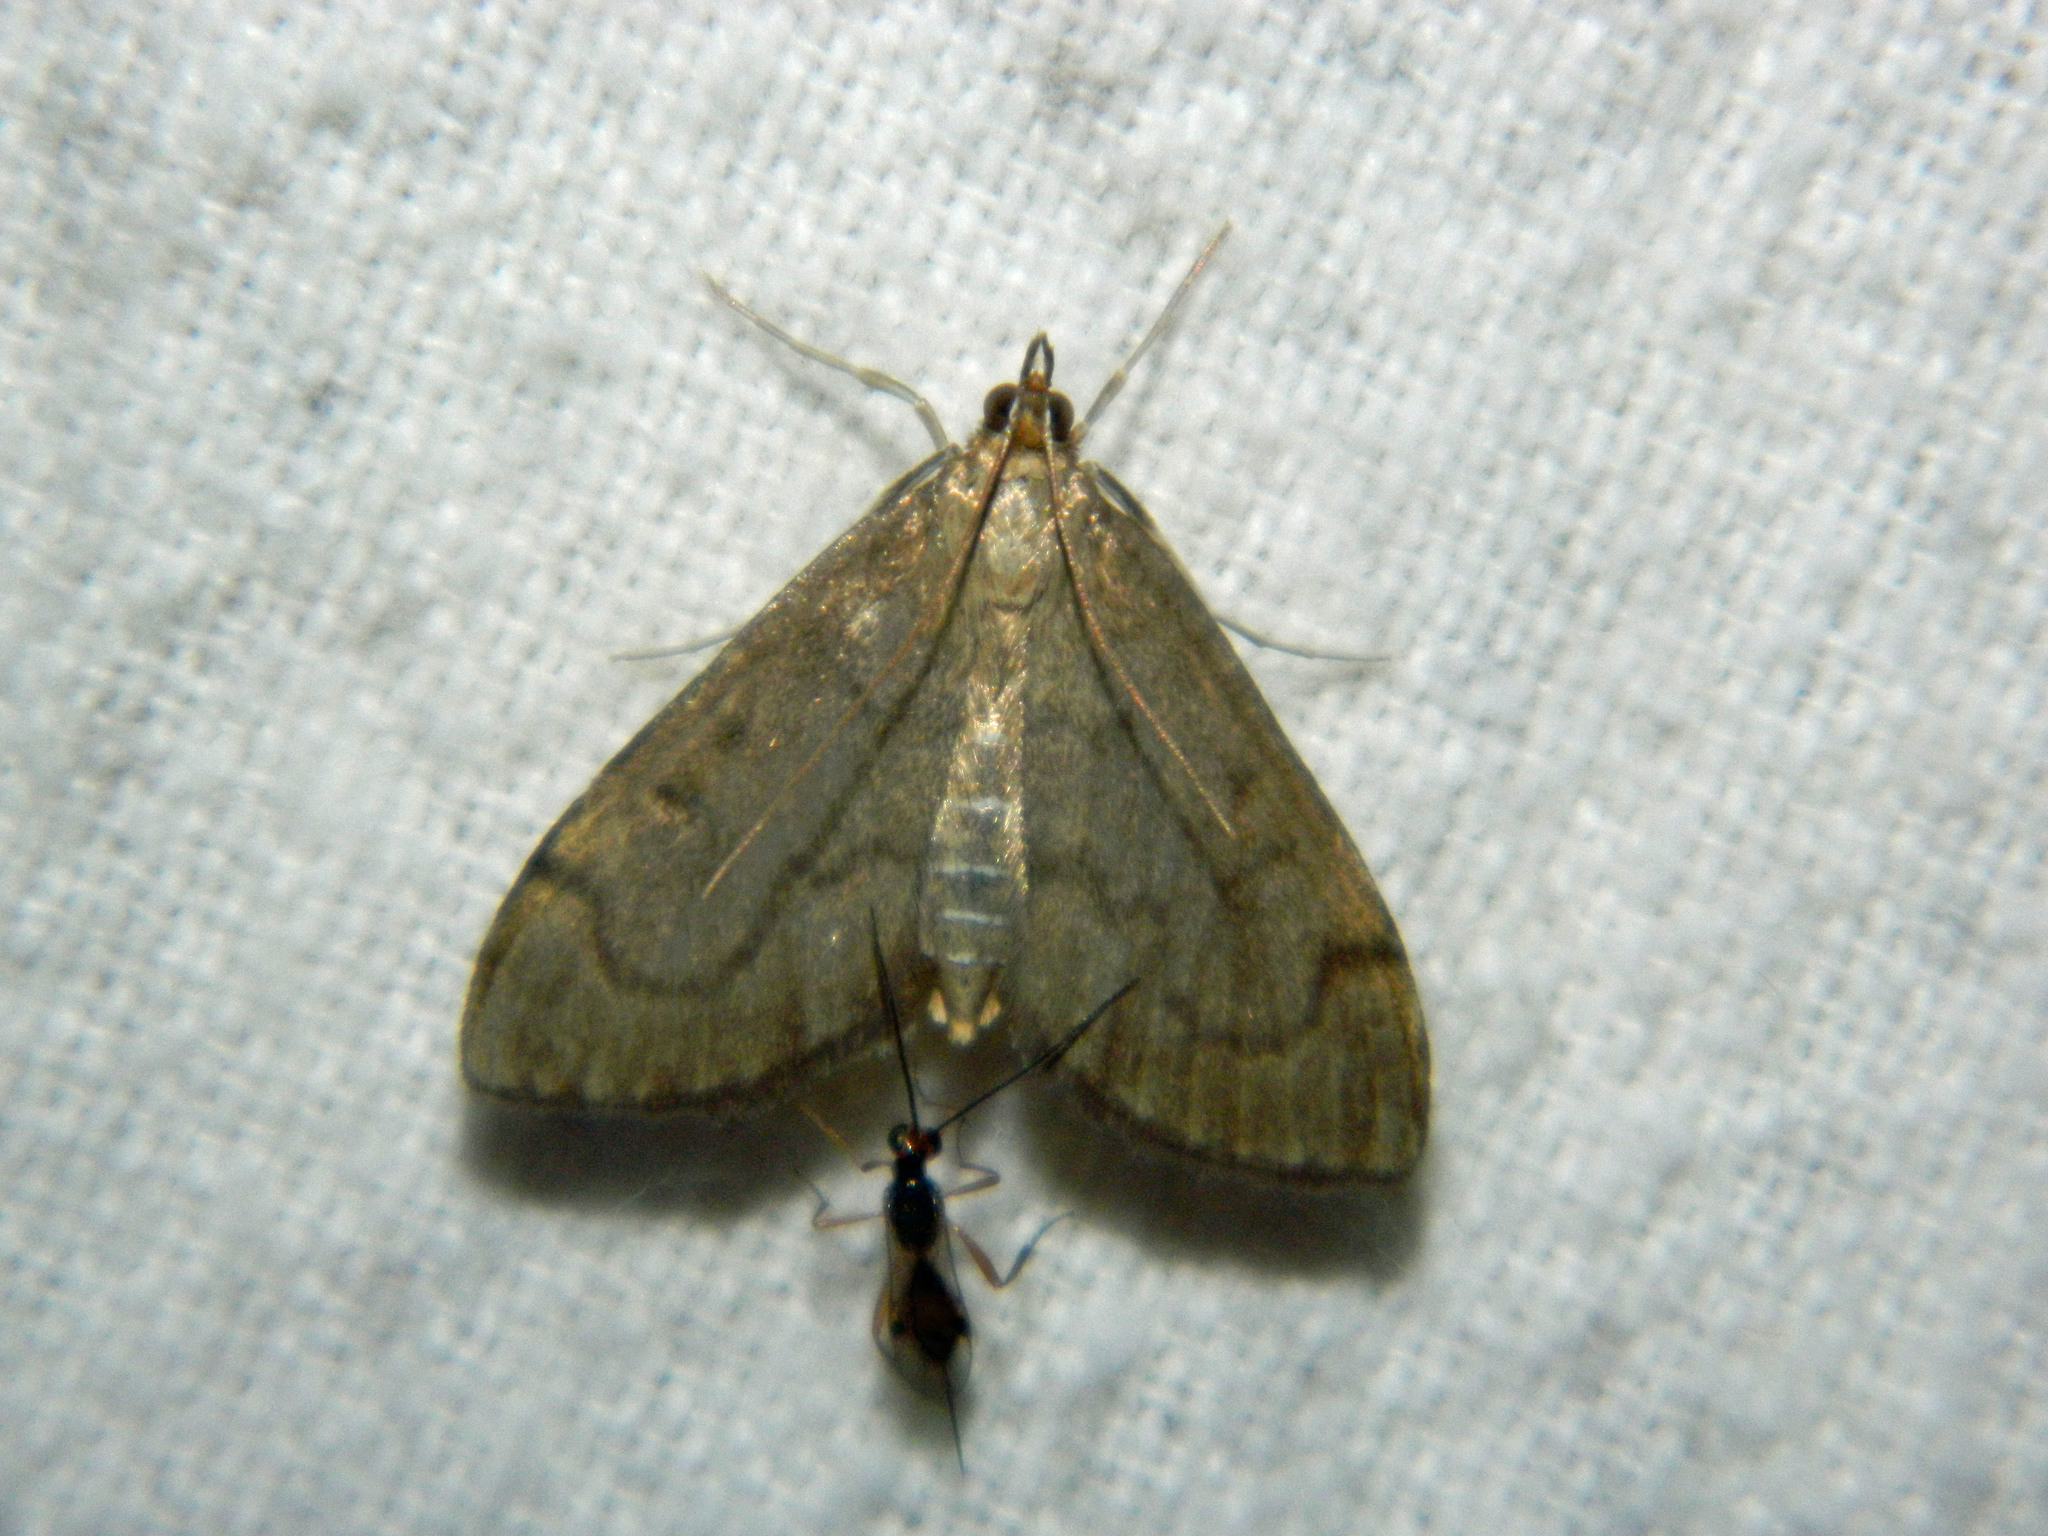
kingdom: Animalia
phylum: Arthropoda
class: Insecta
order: Lepidoptera
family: Crambidae
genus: Anania
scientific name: Anania mysippusalis
